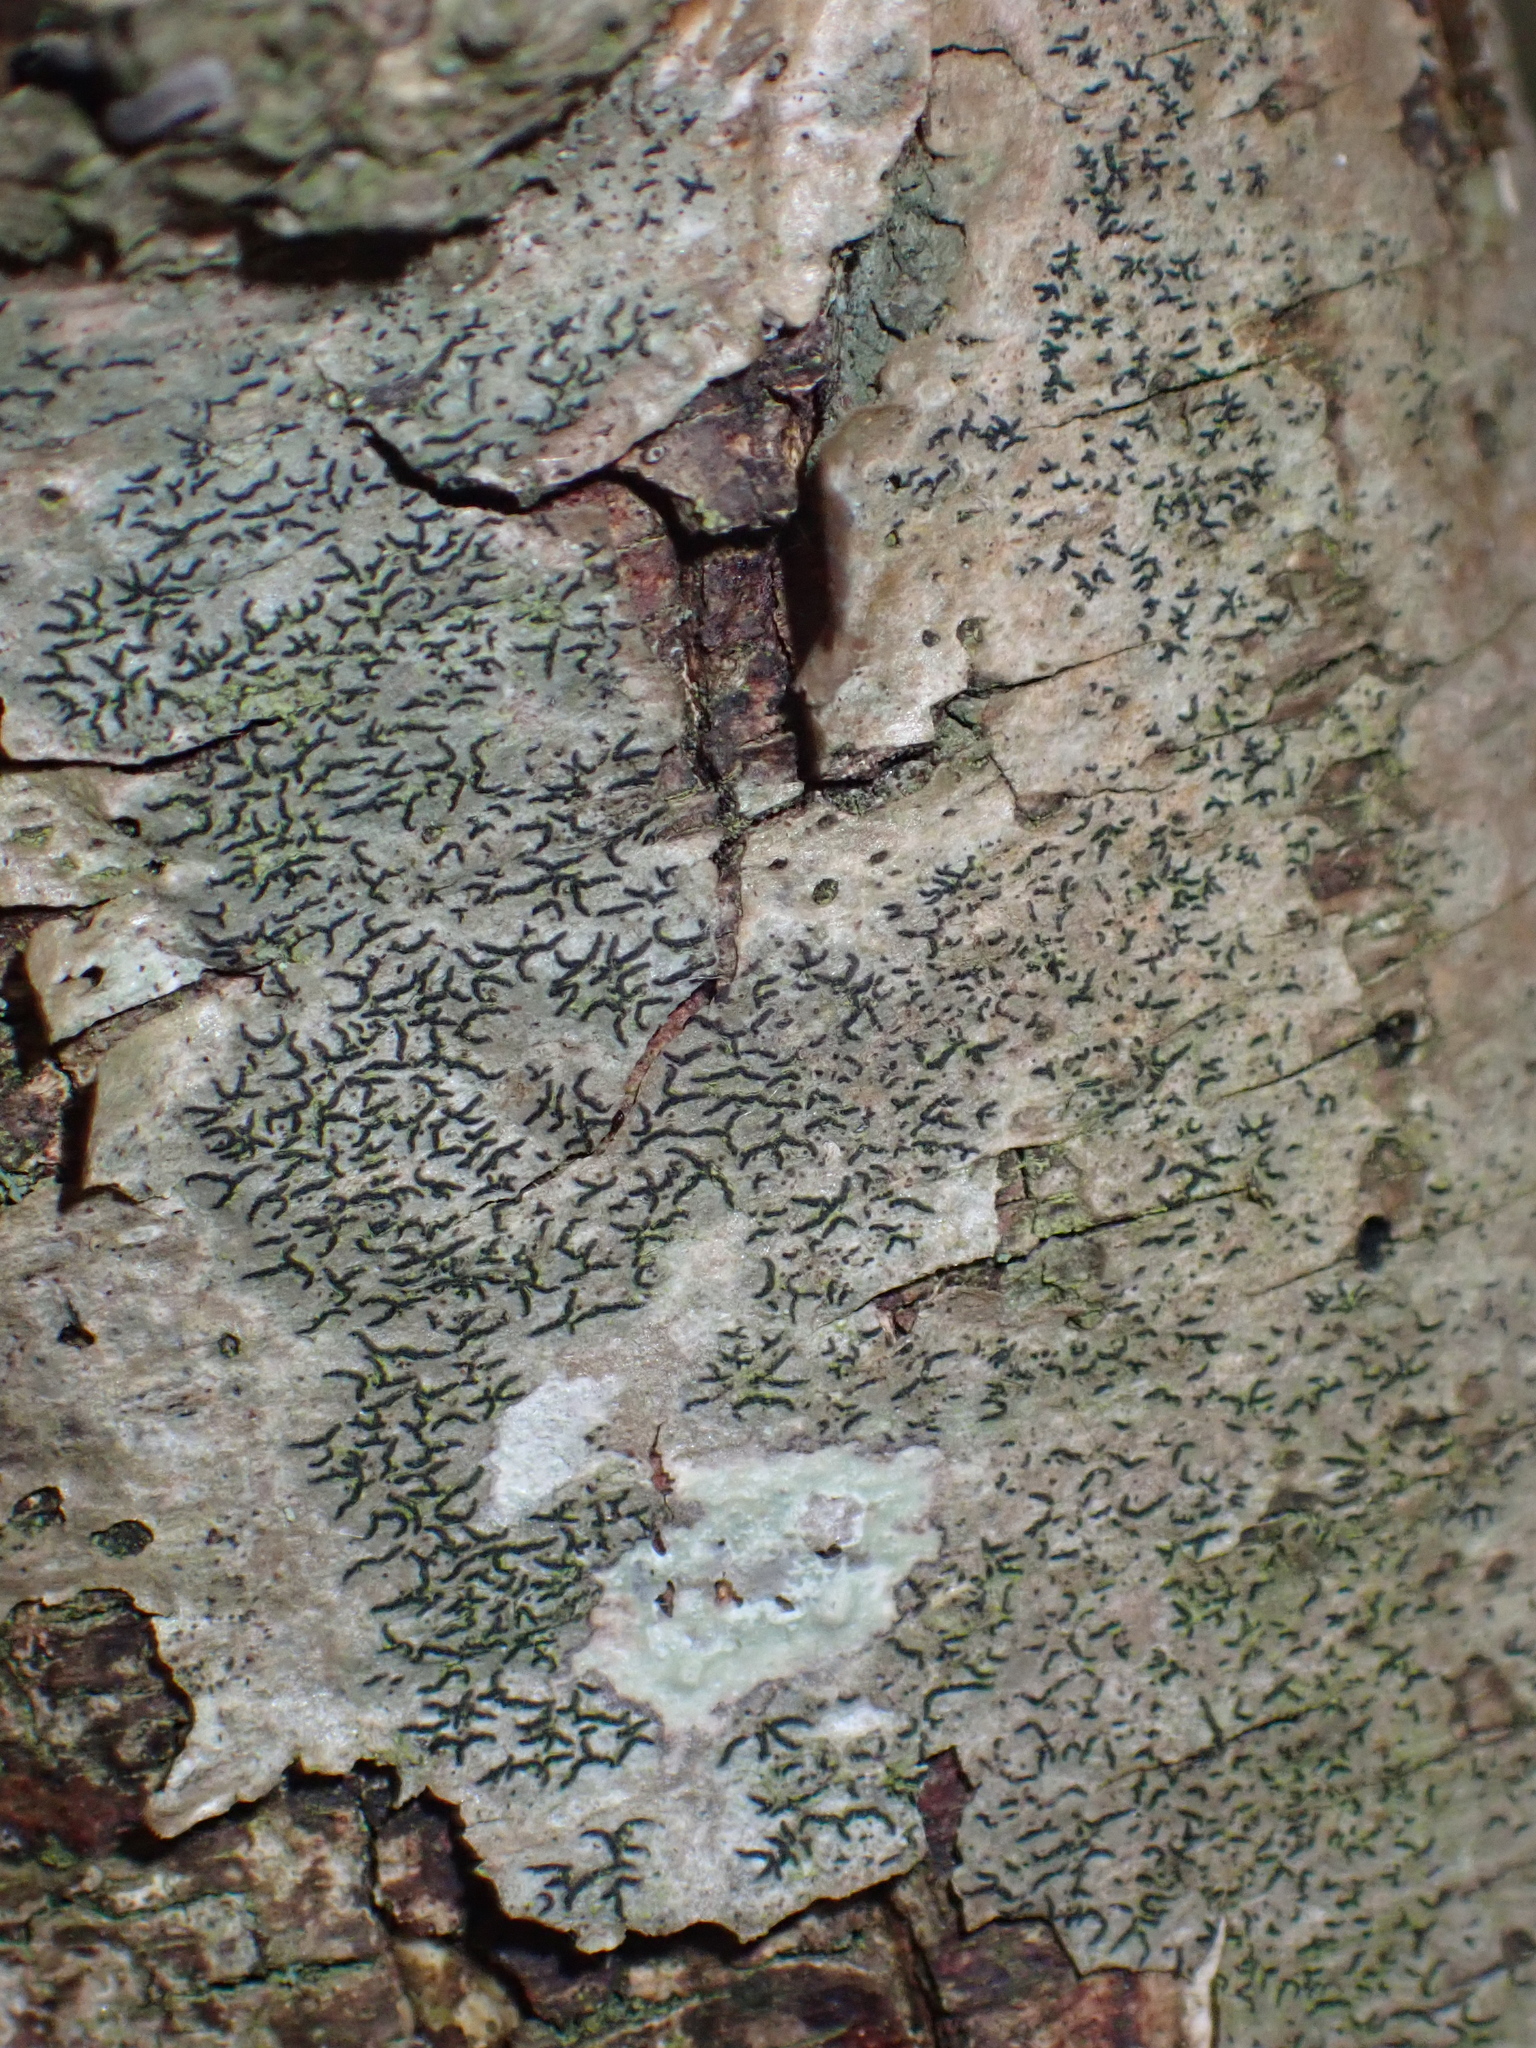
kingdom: Fungi
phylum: Ascomycota
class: Lecanoromycetes
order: Ostropales
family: Graphidaceae
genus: Graphis
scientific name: Graphis scripta
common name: Script lichen
